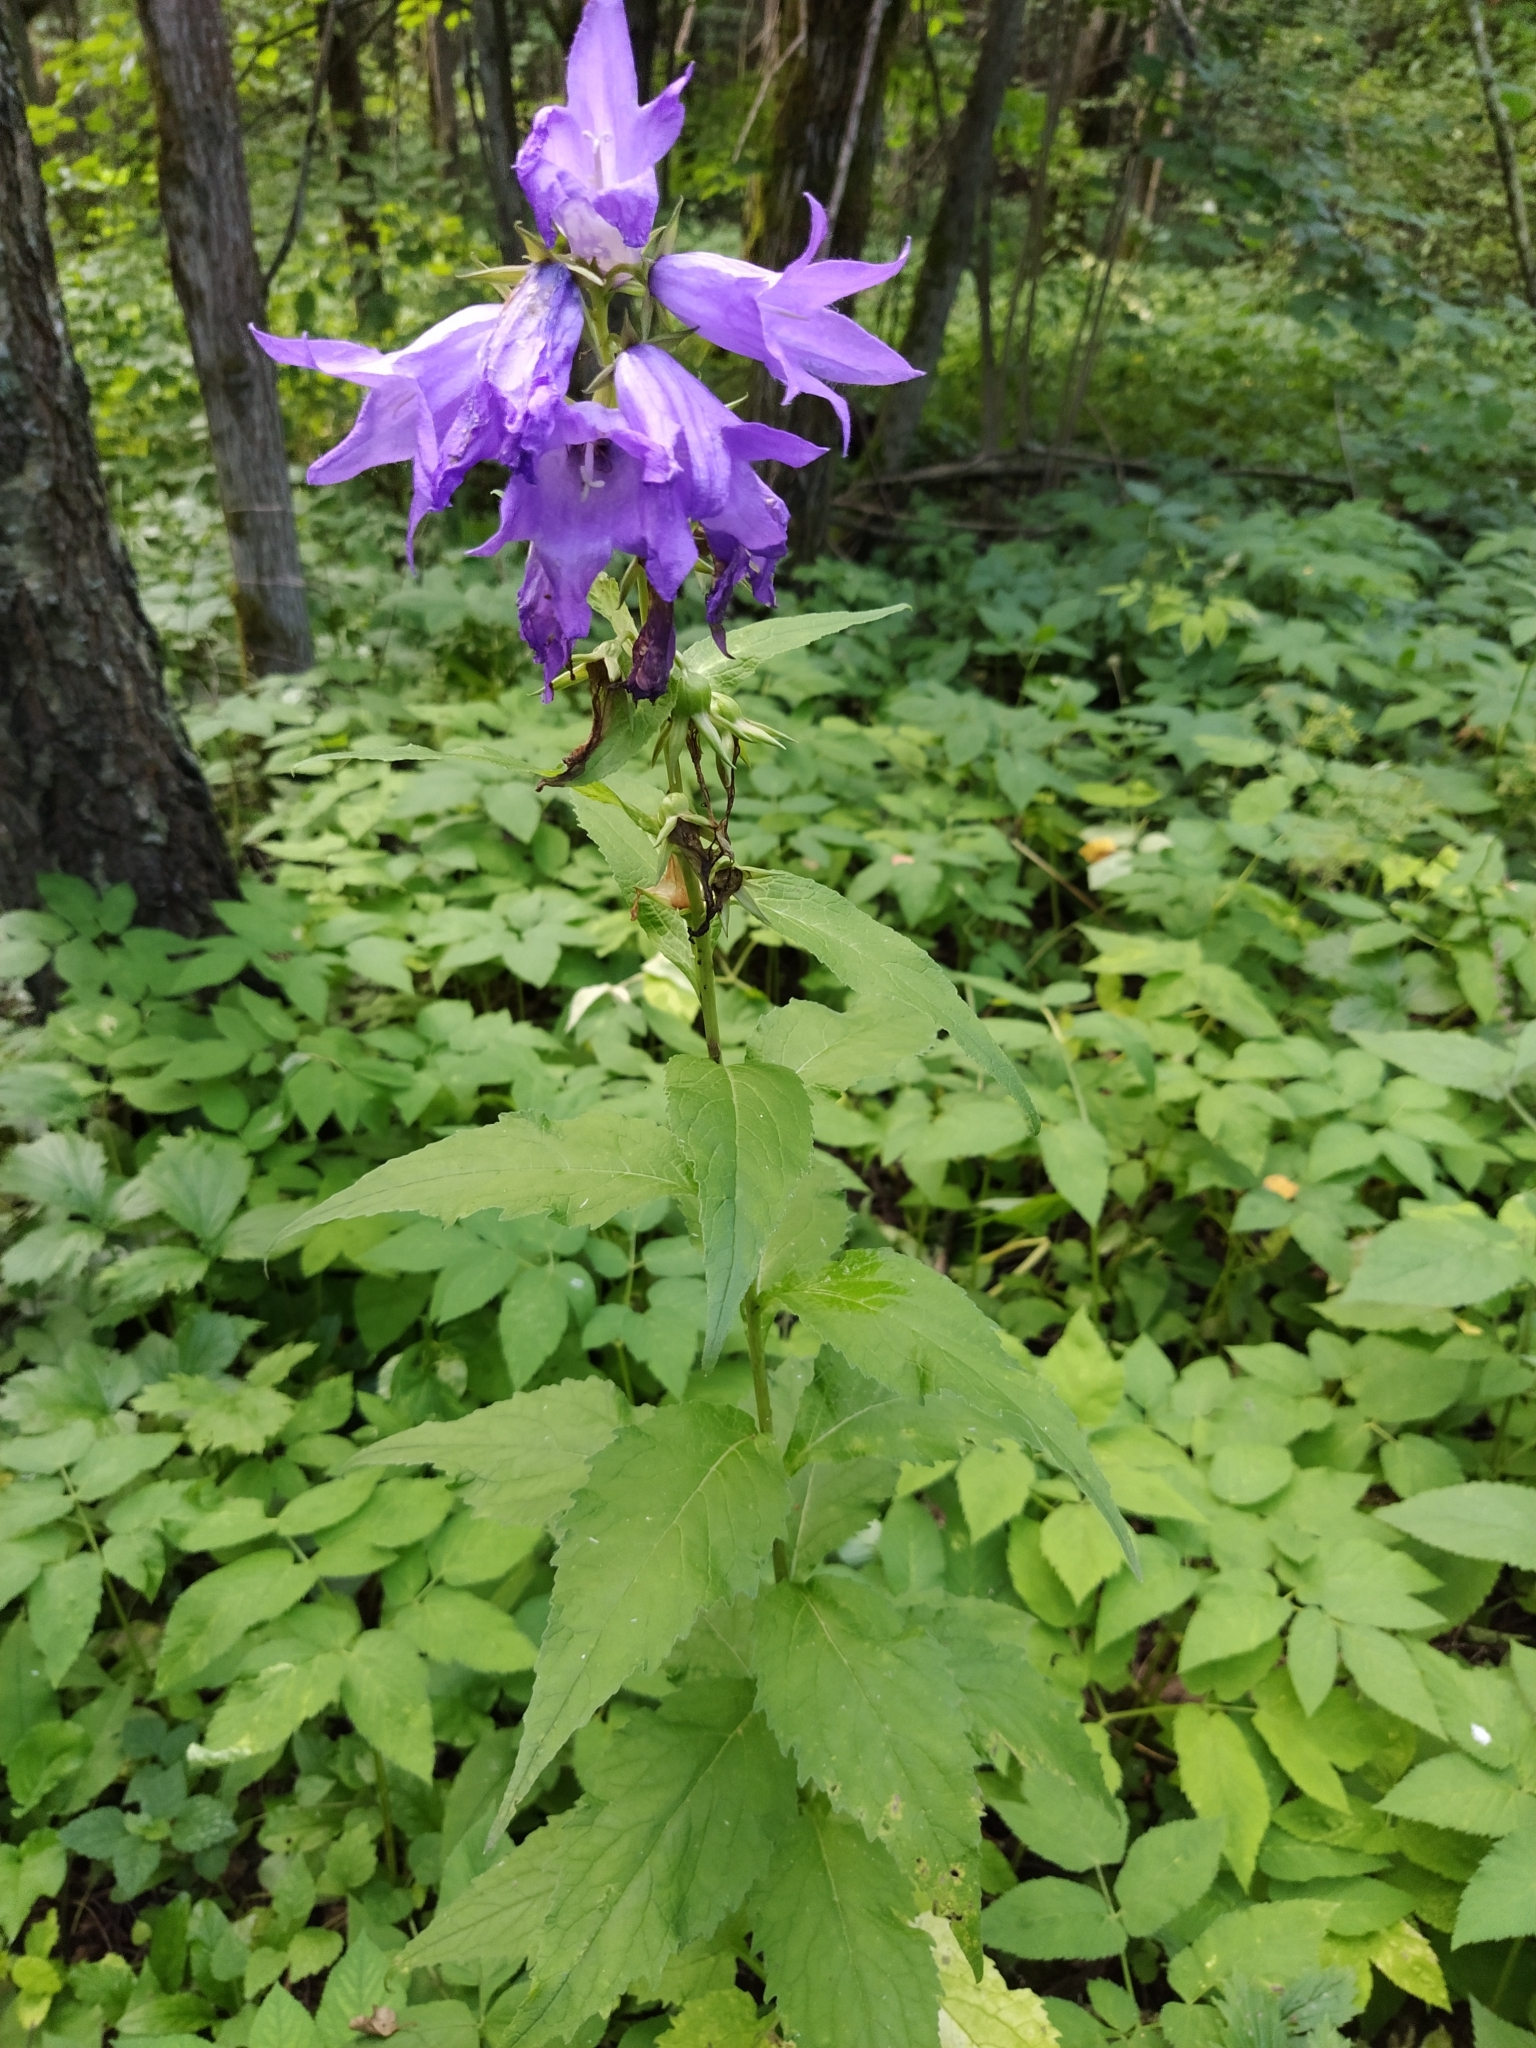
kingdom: Plantae
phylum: Tracheophyta
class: Magnoliopsida
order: Asterales
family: Campanulaceae
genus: Campanula
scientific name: Campanula latifolia
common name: Giant bellflower
